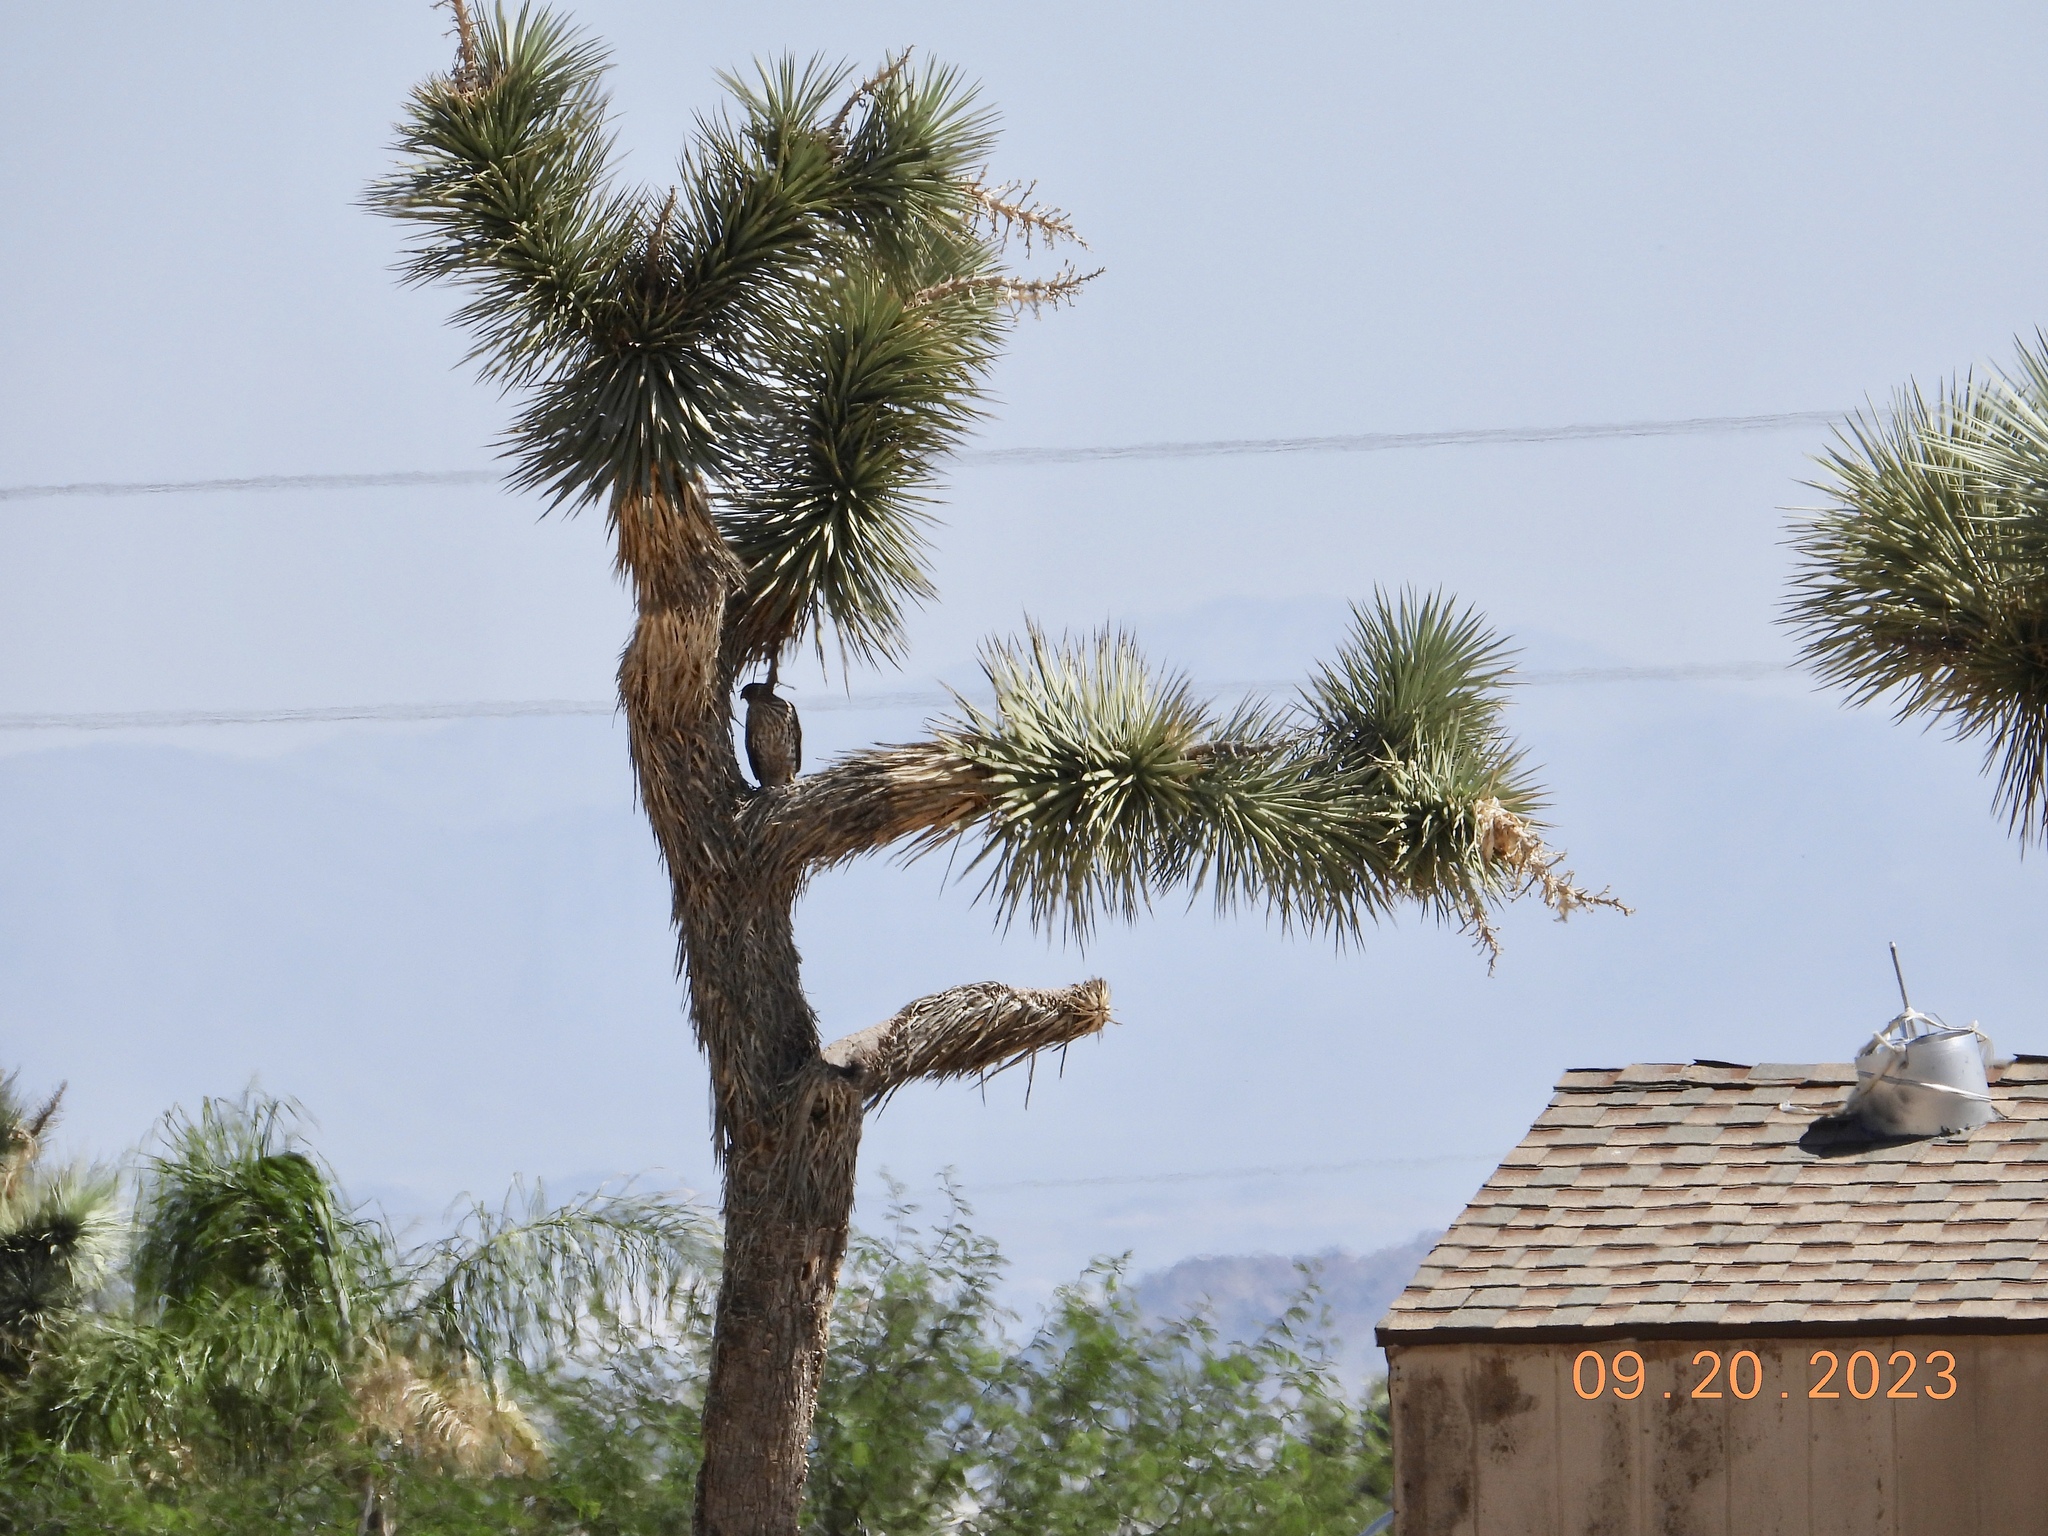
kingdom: Animalia
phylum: Chordata
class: Aves
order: Accipitriformes
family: Accipitridae
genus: Accipiter
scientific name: Accipiter cooperii
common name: Cooper's hawk
